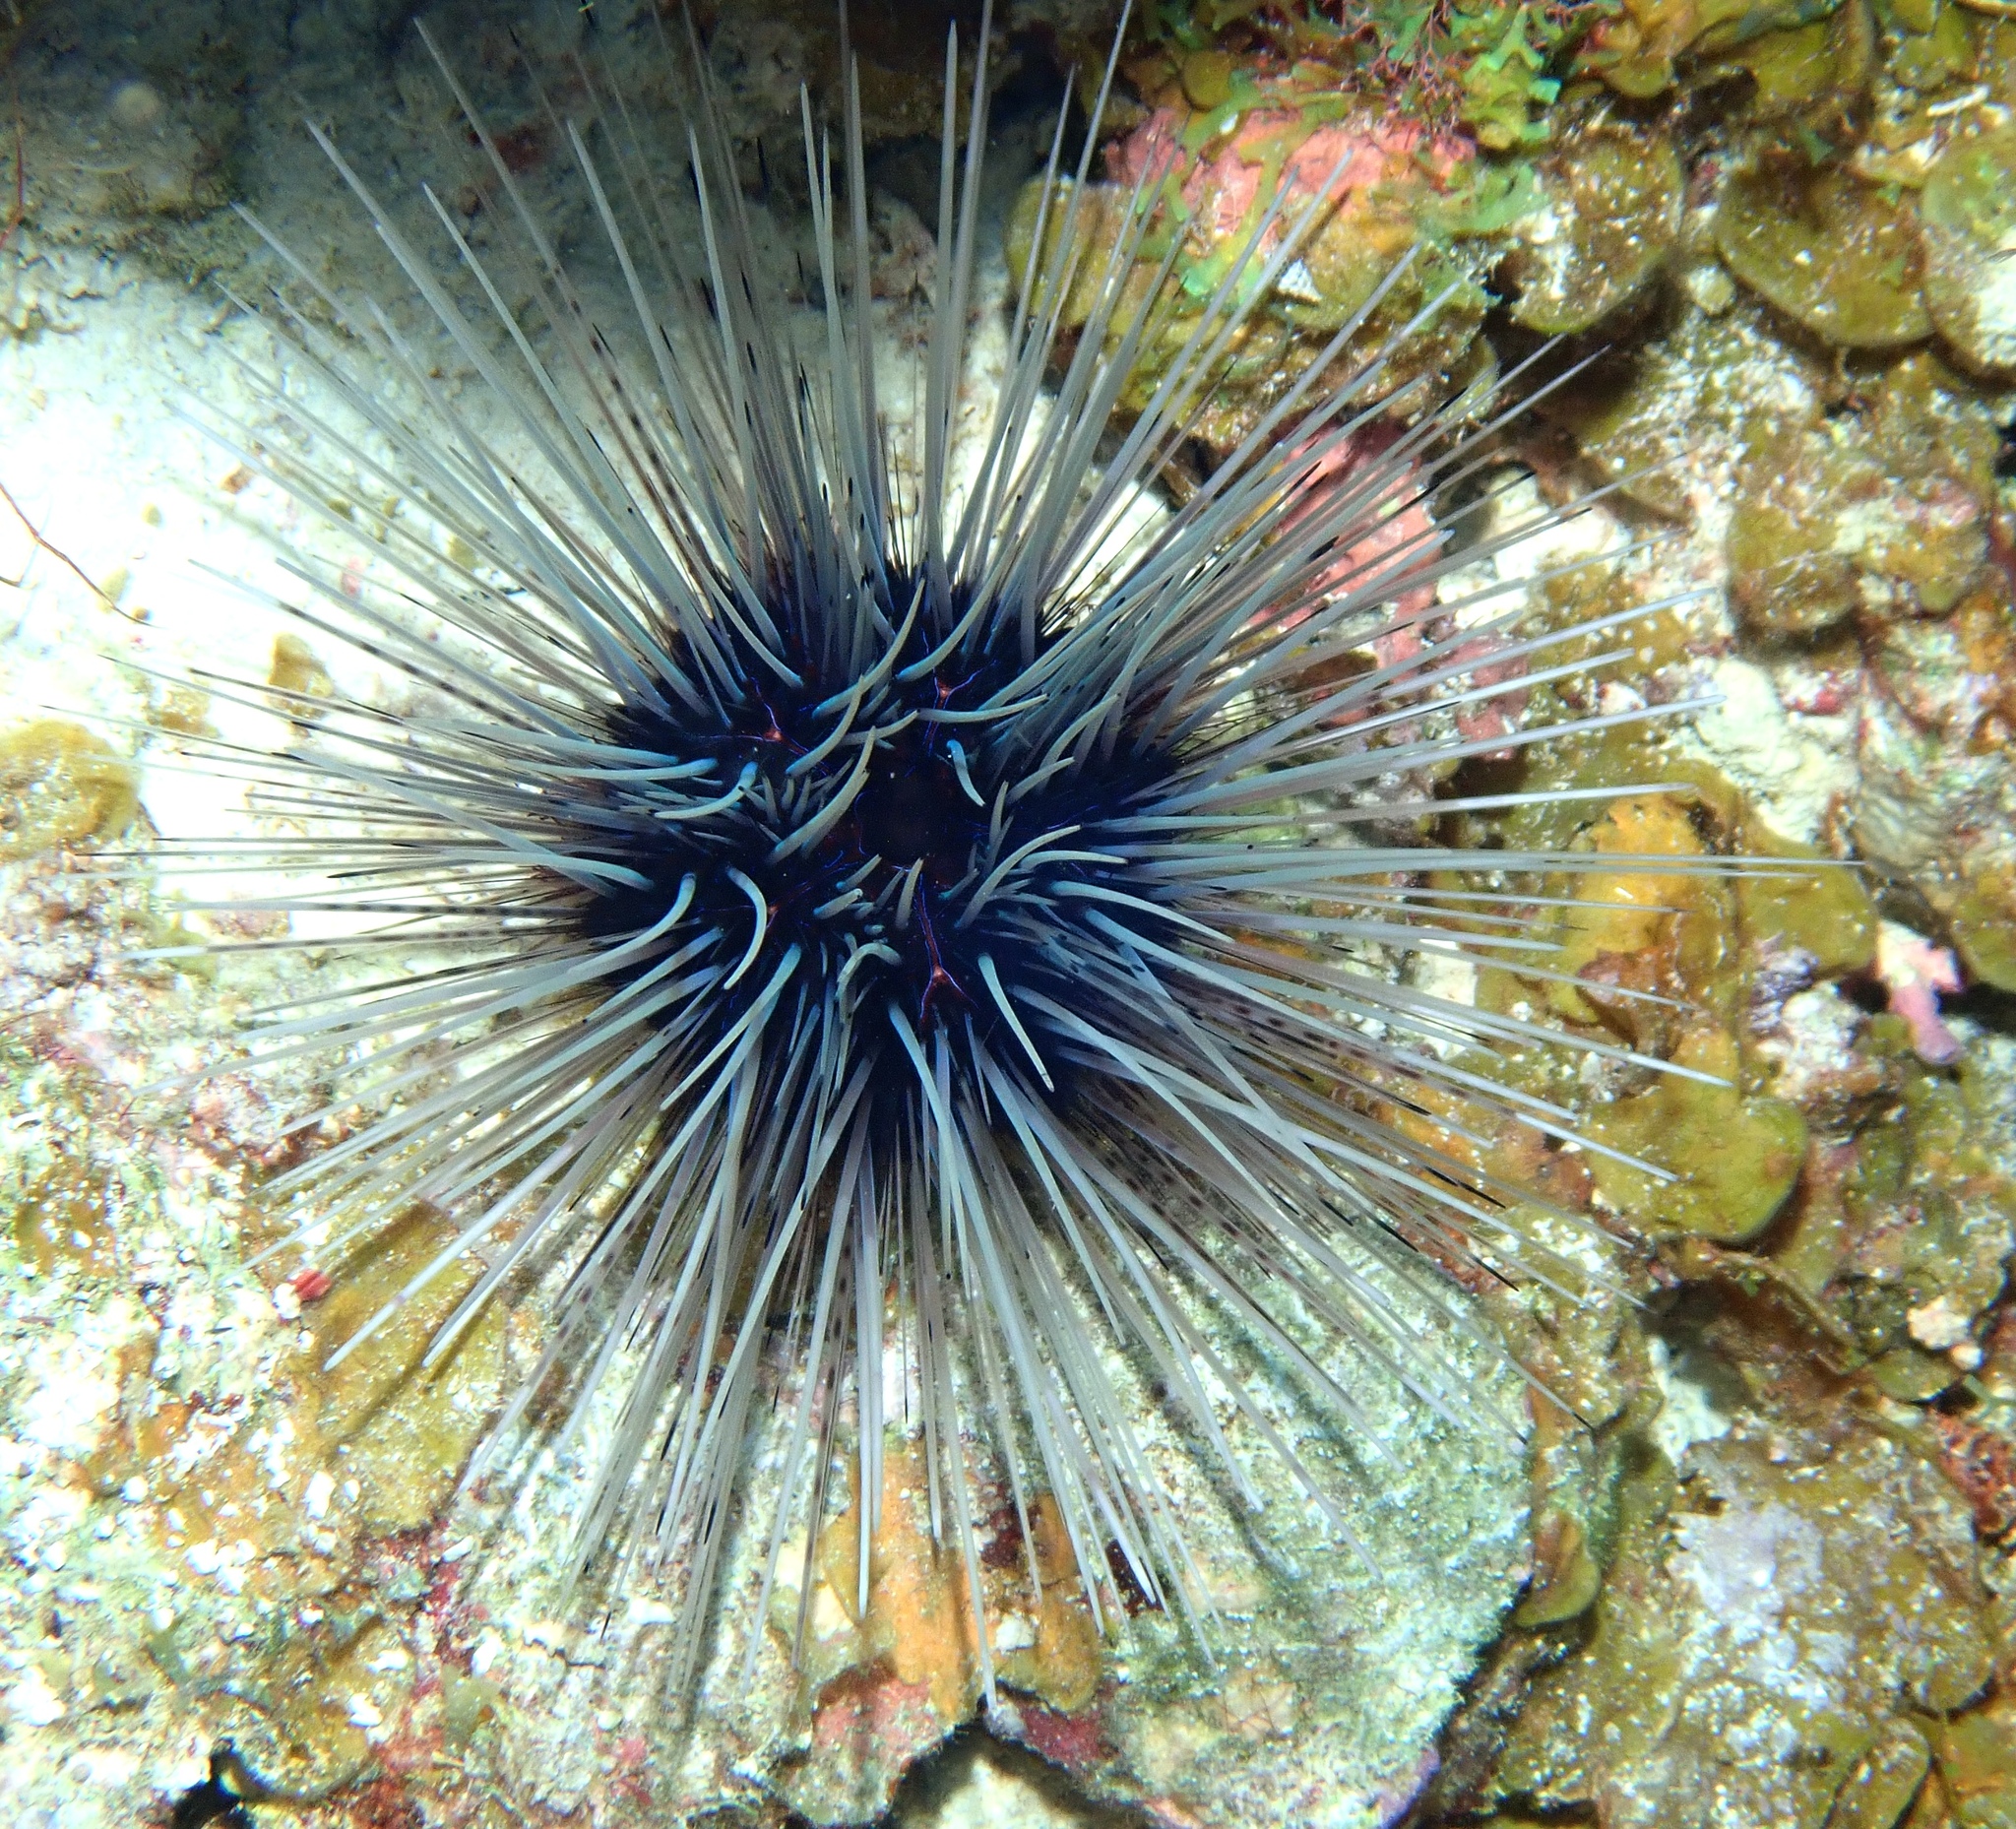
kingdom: Animalia
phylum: Echinodermata
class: Echinoidea
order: Diadematoida
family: Diadematidae
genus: Diadema
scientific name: Diadema antillarum
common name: Spiny urchin
